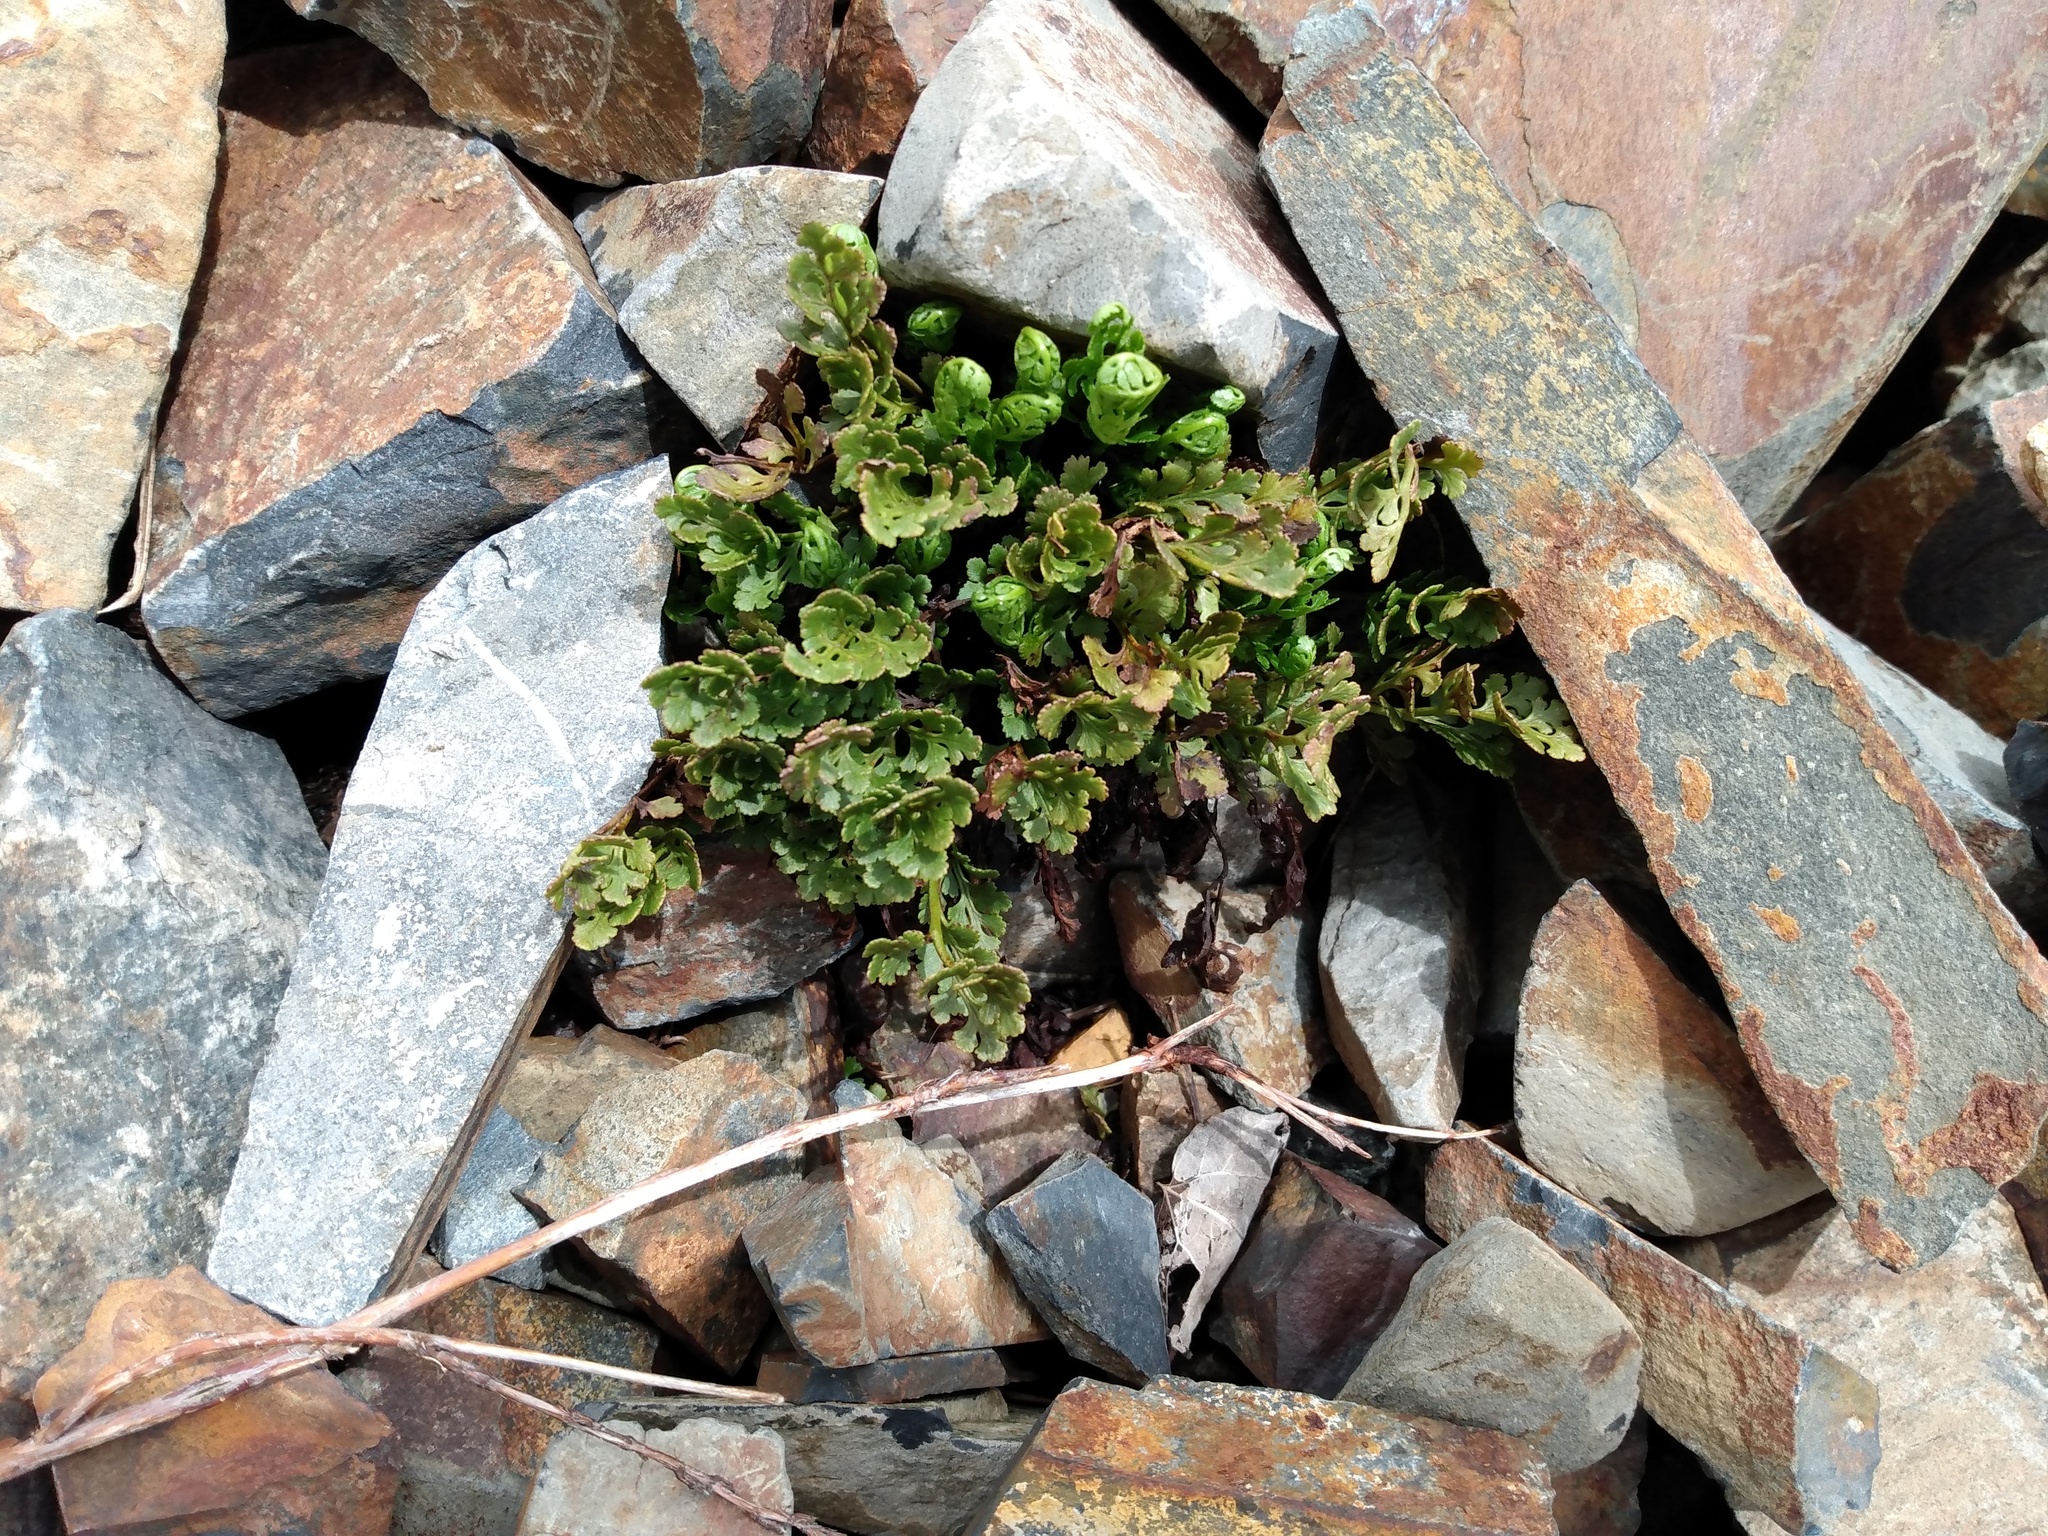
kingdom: Plantae
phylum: Tracheophyta
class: Polypodiopsida
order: Polypodiales
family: Pteridaceae
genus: Cryptogramma
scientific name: Cryptogramma acrostichoides
